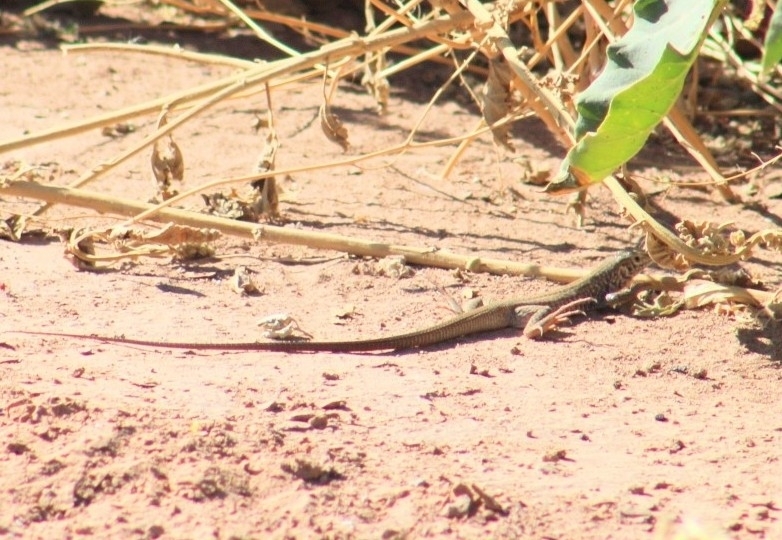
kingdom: Animalia
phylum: Chordata
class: Squamata
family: Teiidae
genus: Aspidoscelis
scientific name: Aspidoscelis tigris
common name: Tiger whiptail
